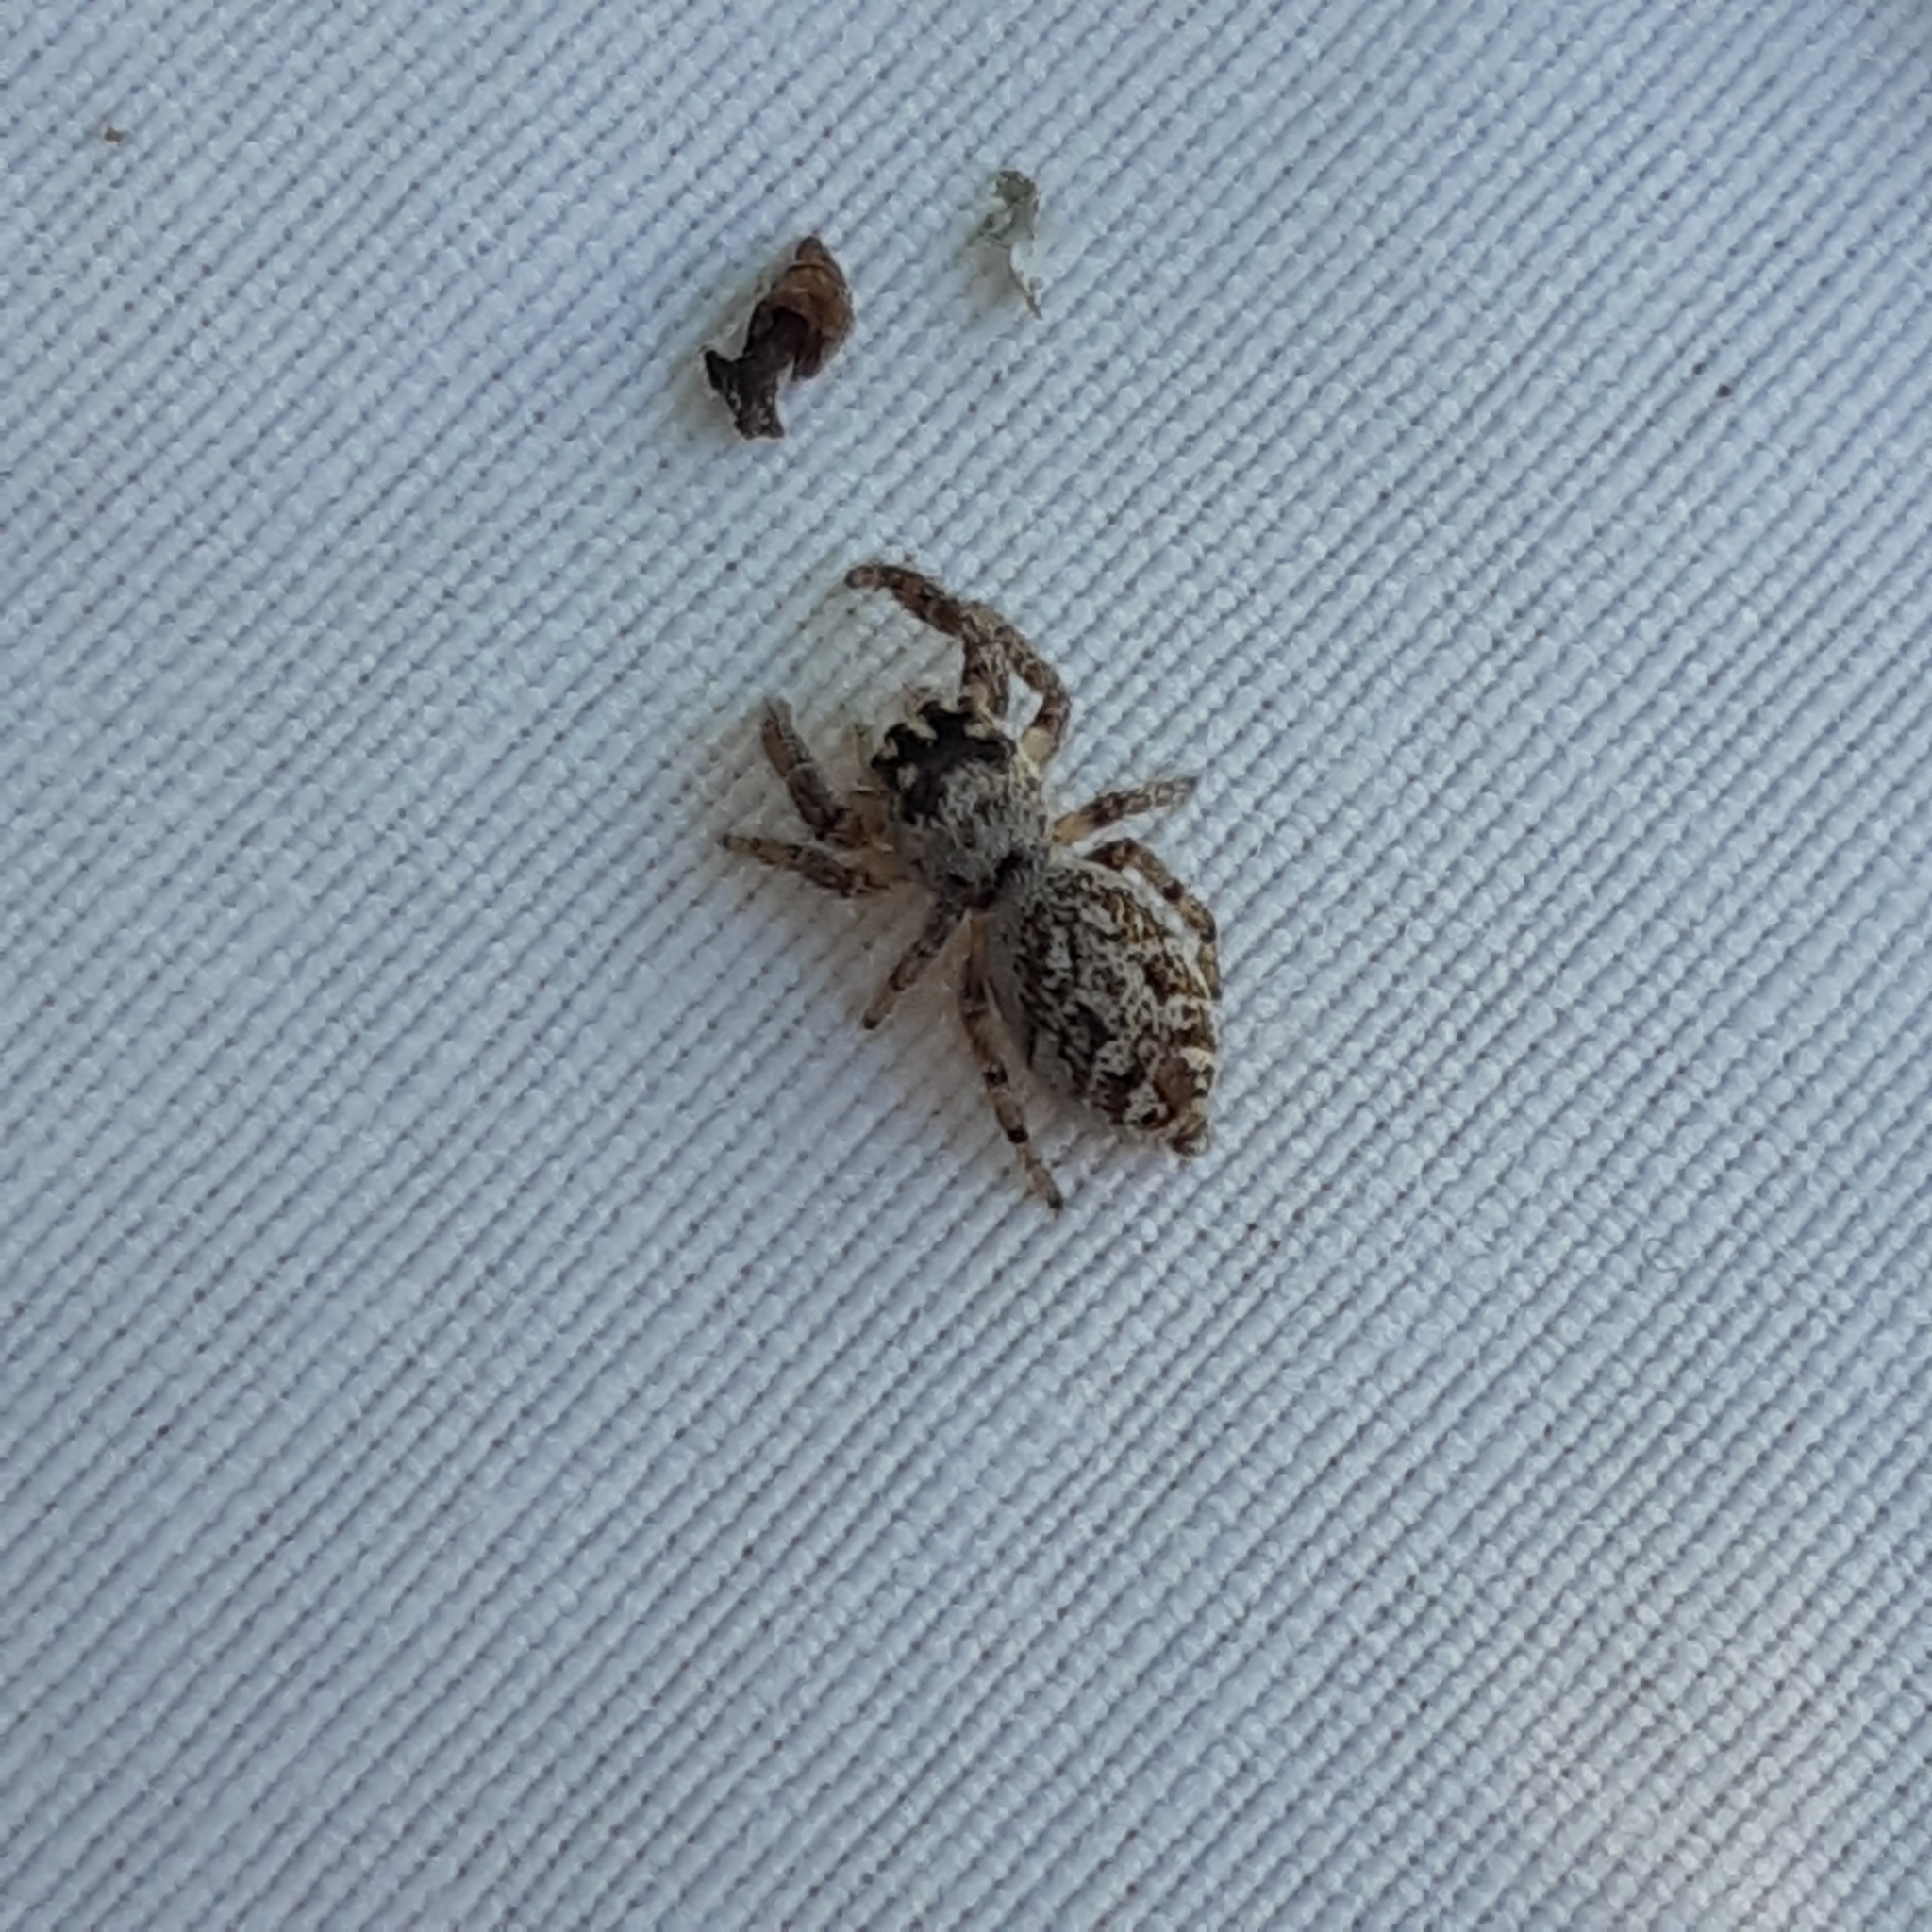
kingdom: Animalia
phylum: Arthropoda
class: Arachnida
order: Araneae
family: Salticidae
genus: Macaroeris
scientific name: Macaroeris nidicolens
